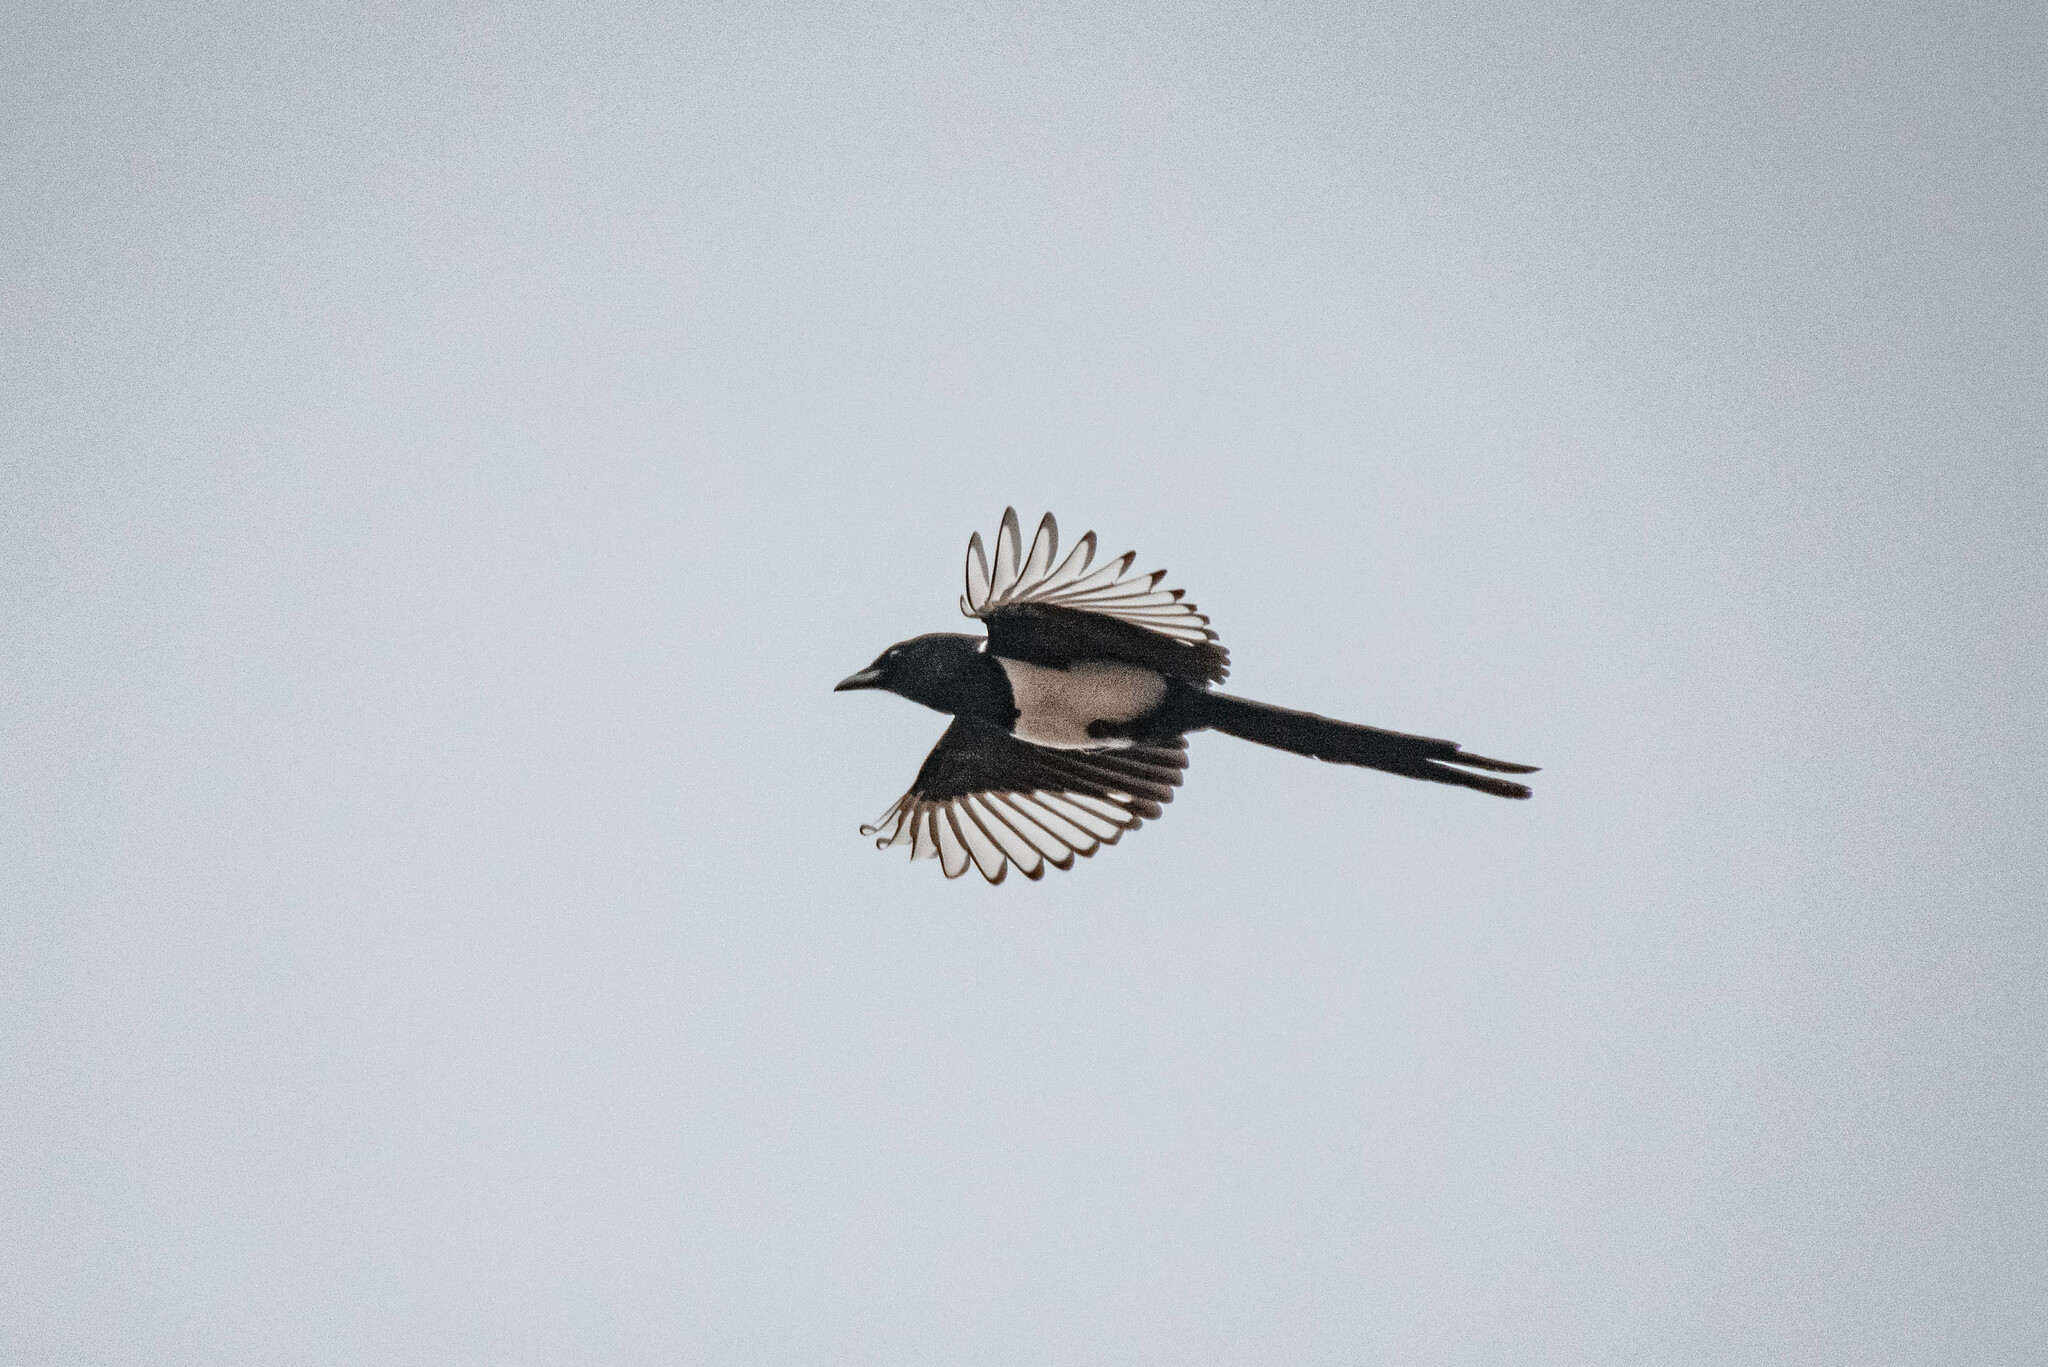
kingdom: Animalia
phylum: Chordata
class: Aves
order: Passeriformes
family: Corvidae
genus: Pica
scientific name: Pica pica
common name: Eurasian magpie
